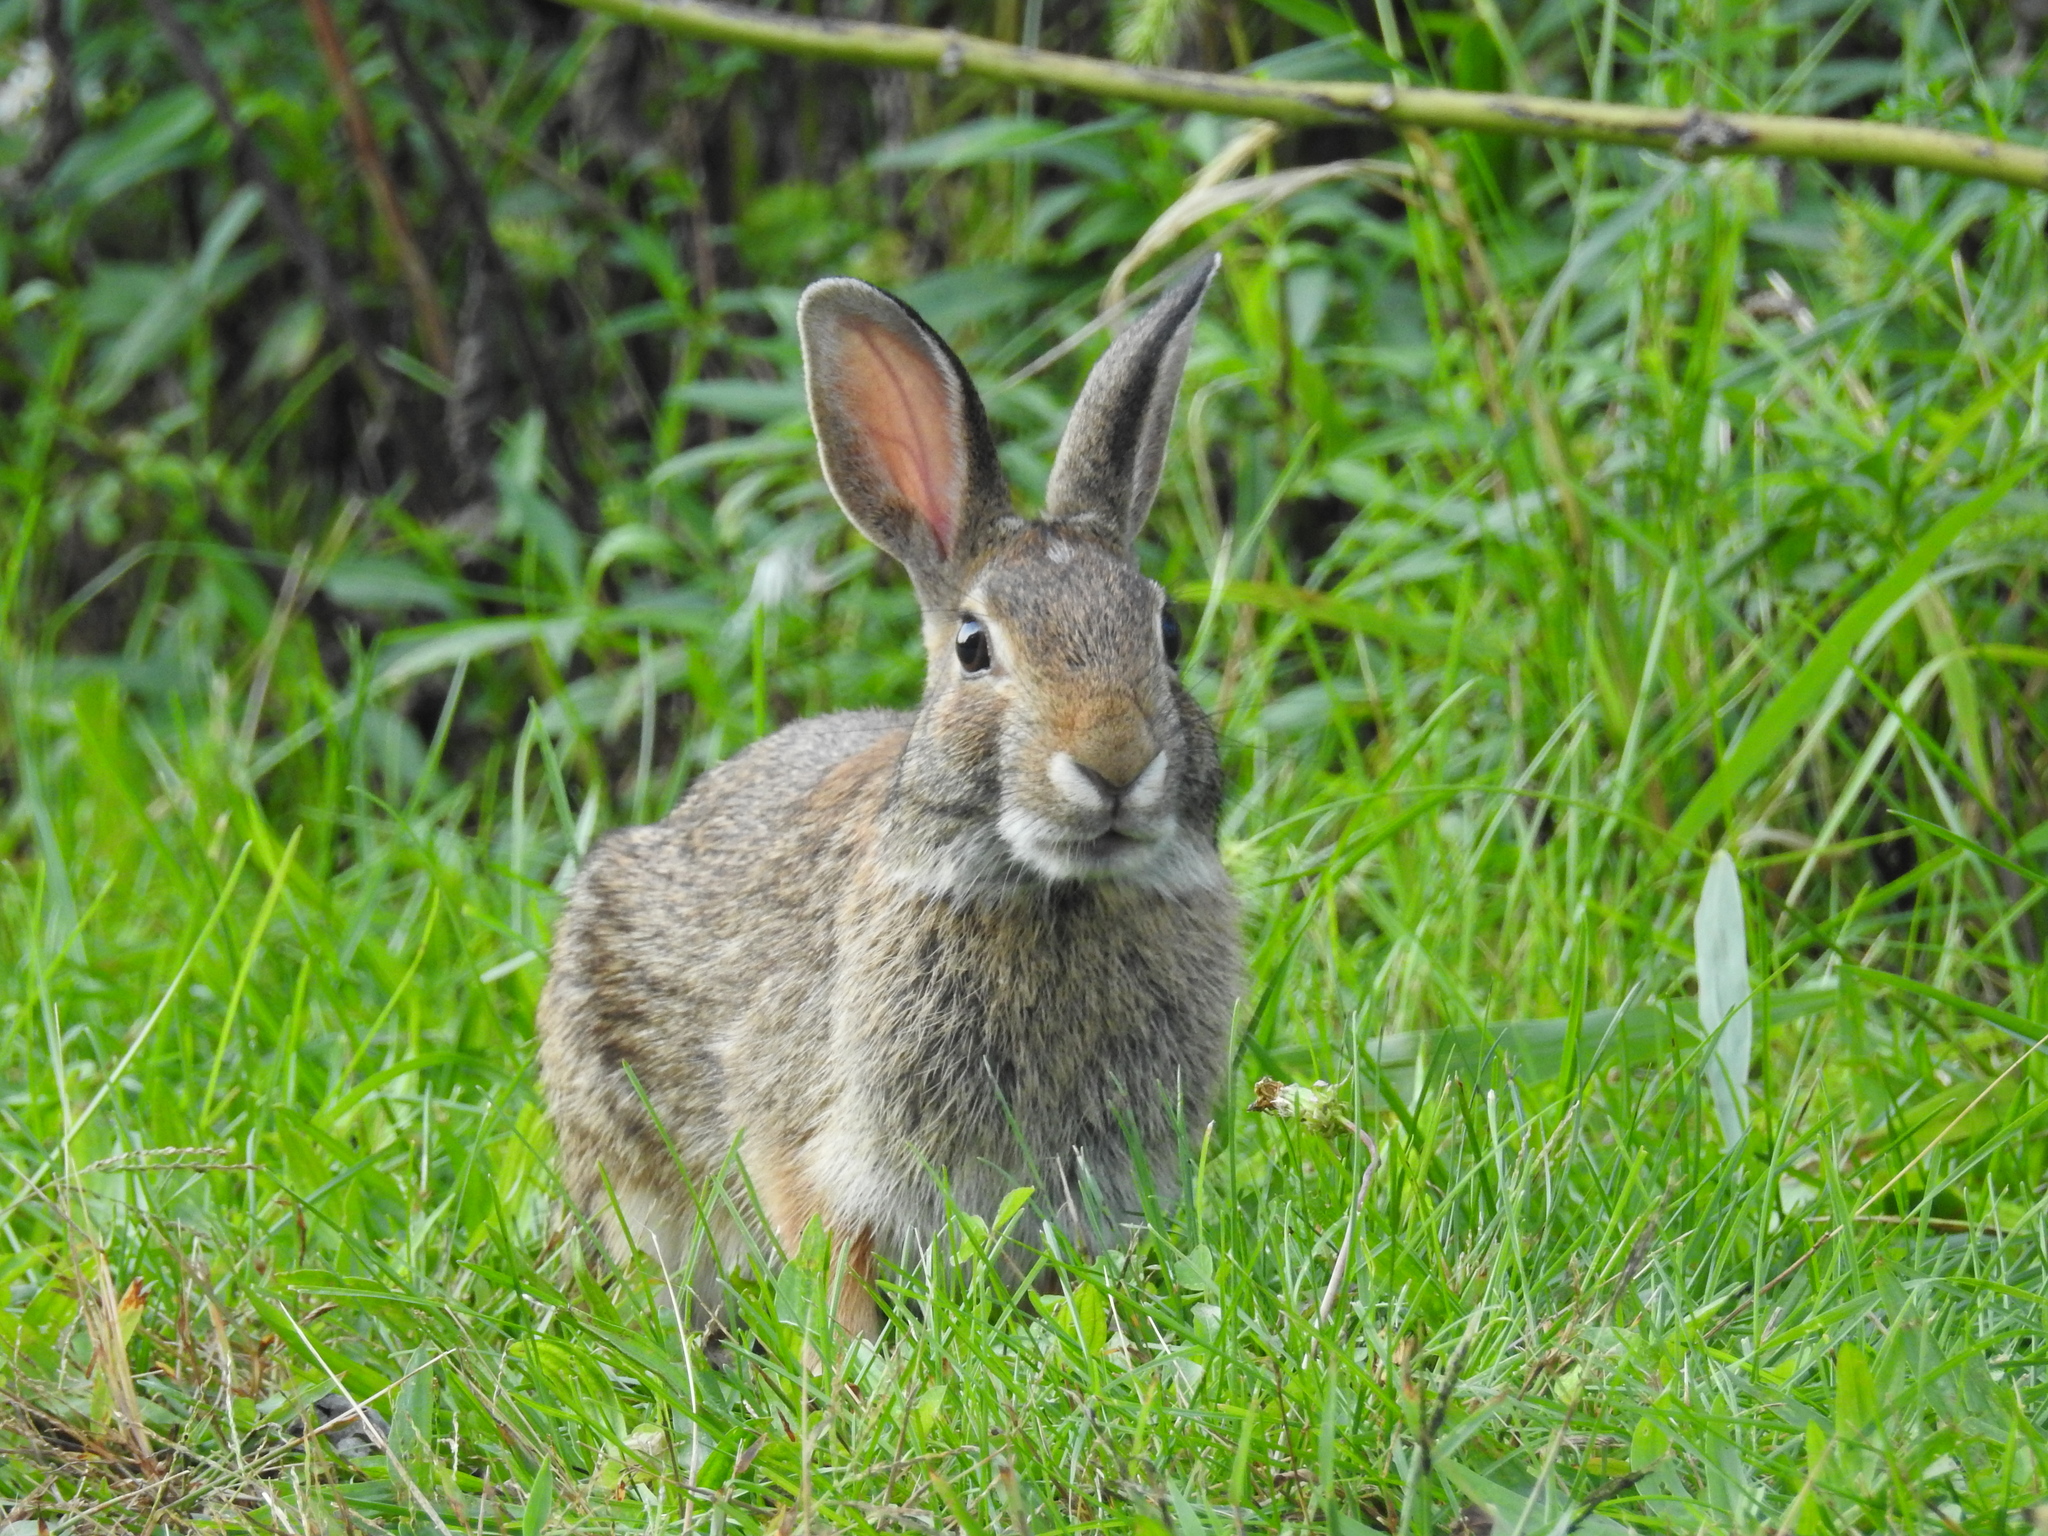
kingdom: Animalia
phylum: Chordata
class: Mammalia
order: Lagomorpha
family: Leporidae
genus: Sylvilagus
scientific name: Sylvilagus floridanus
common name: Eastern cottontail
